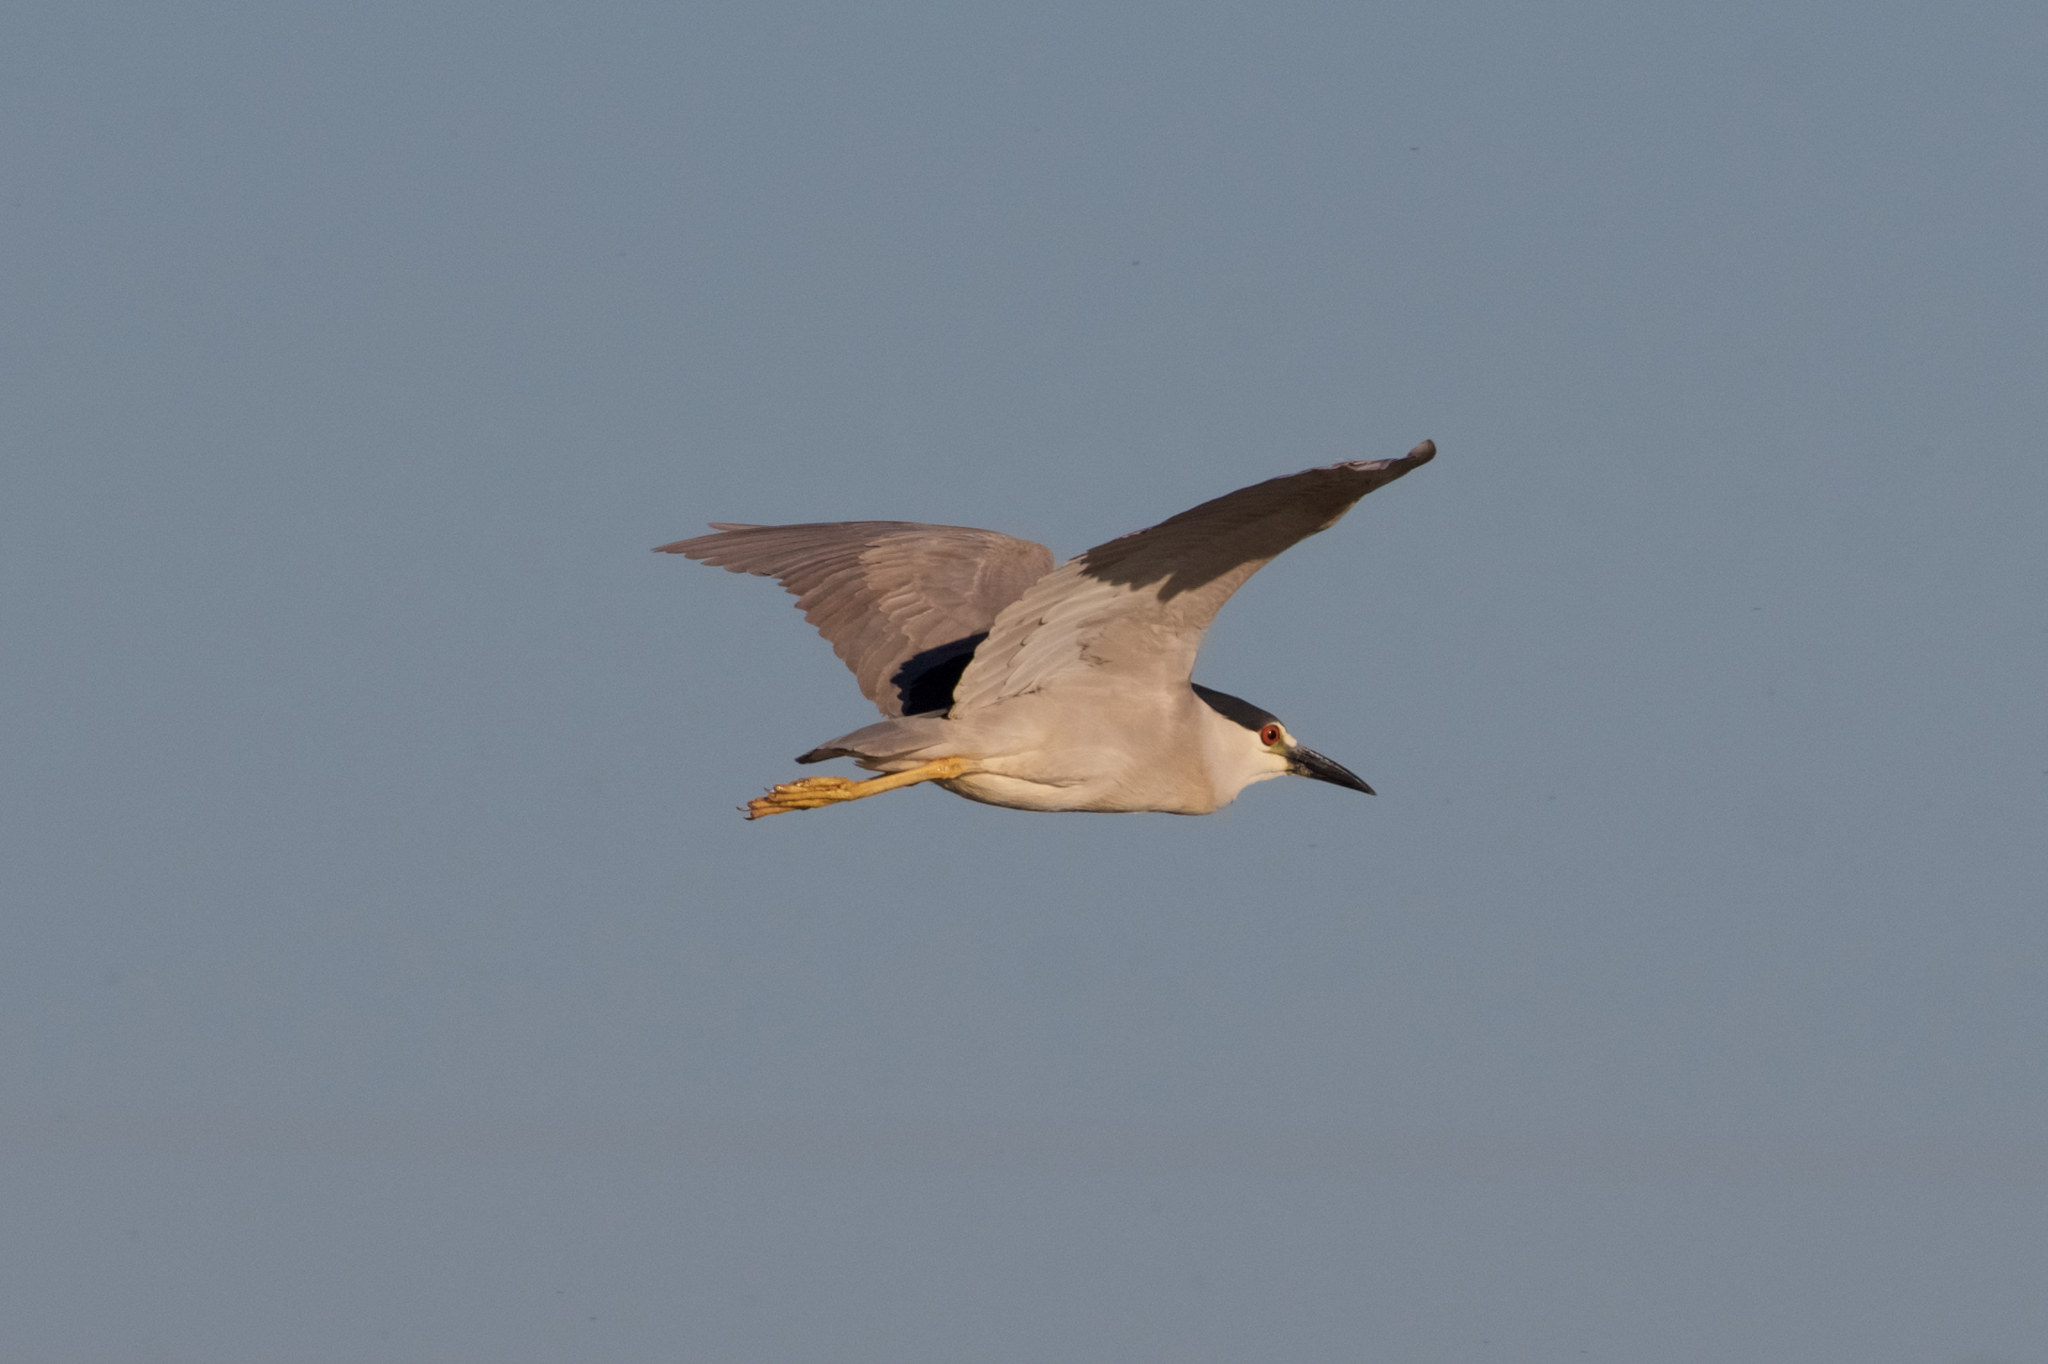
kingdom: Animalia
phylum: Chordata
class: Aves
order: Pelecaniformes
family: Ardeidae
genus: Nycticorax
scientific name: Nycticorax nycticorax
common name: Black-crowned night heron
